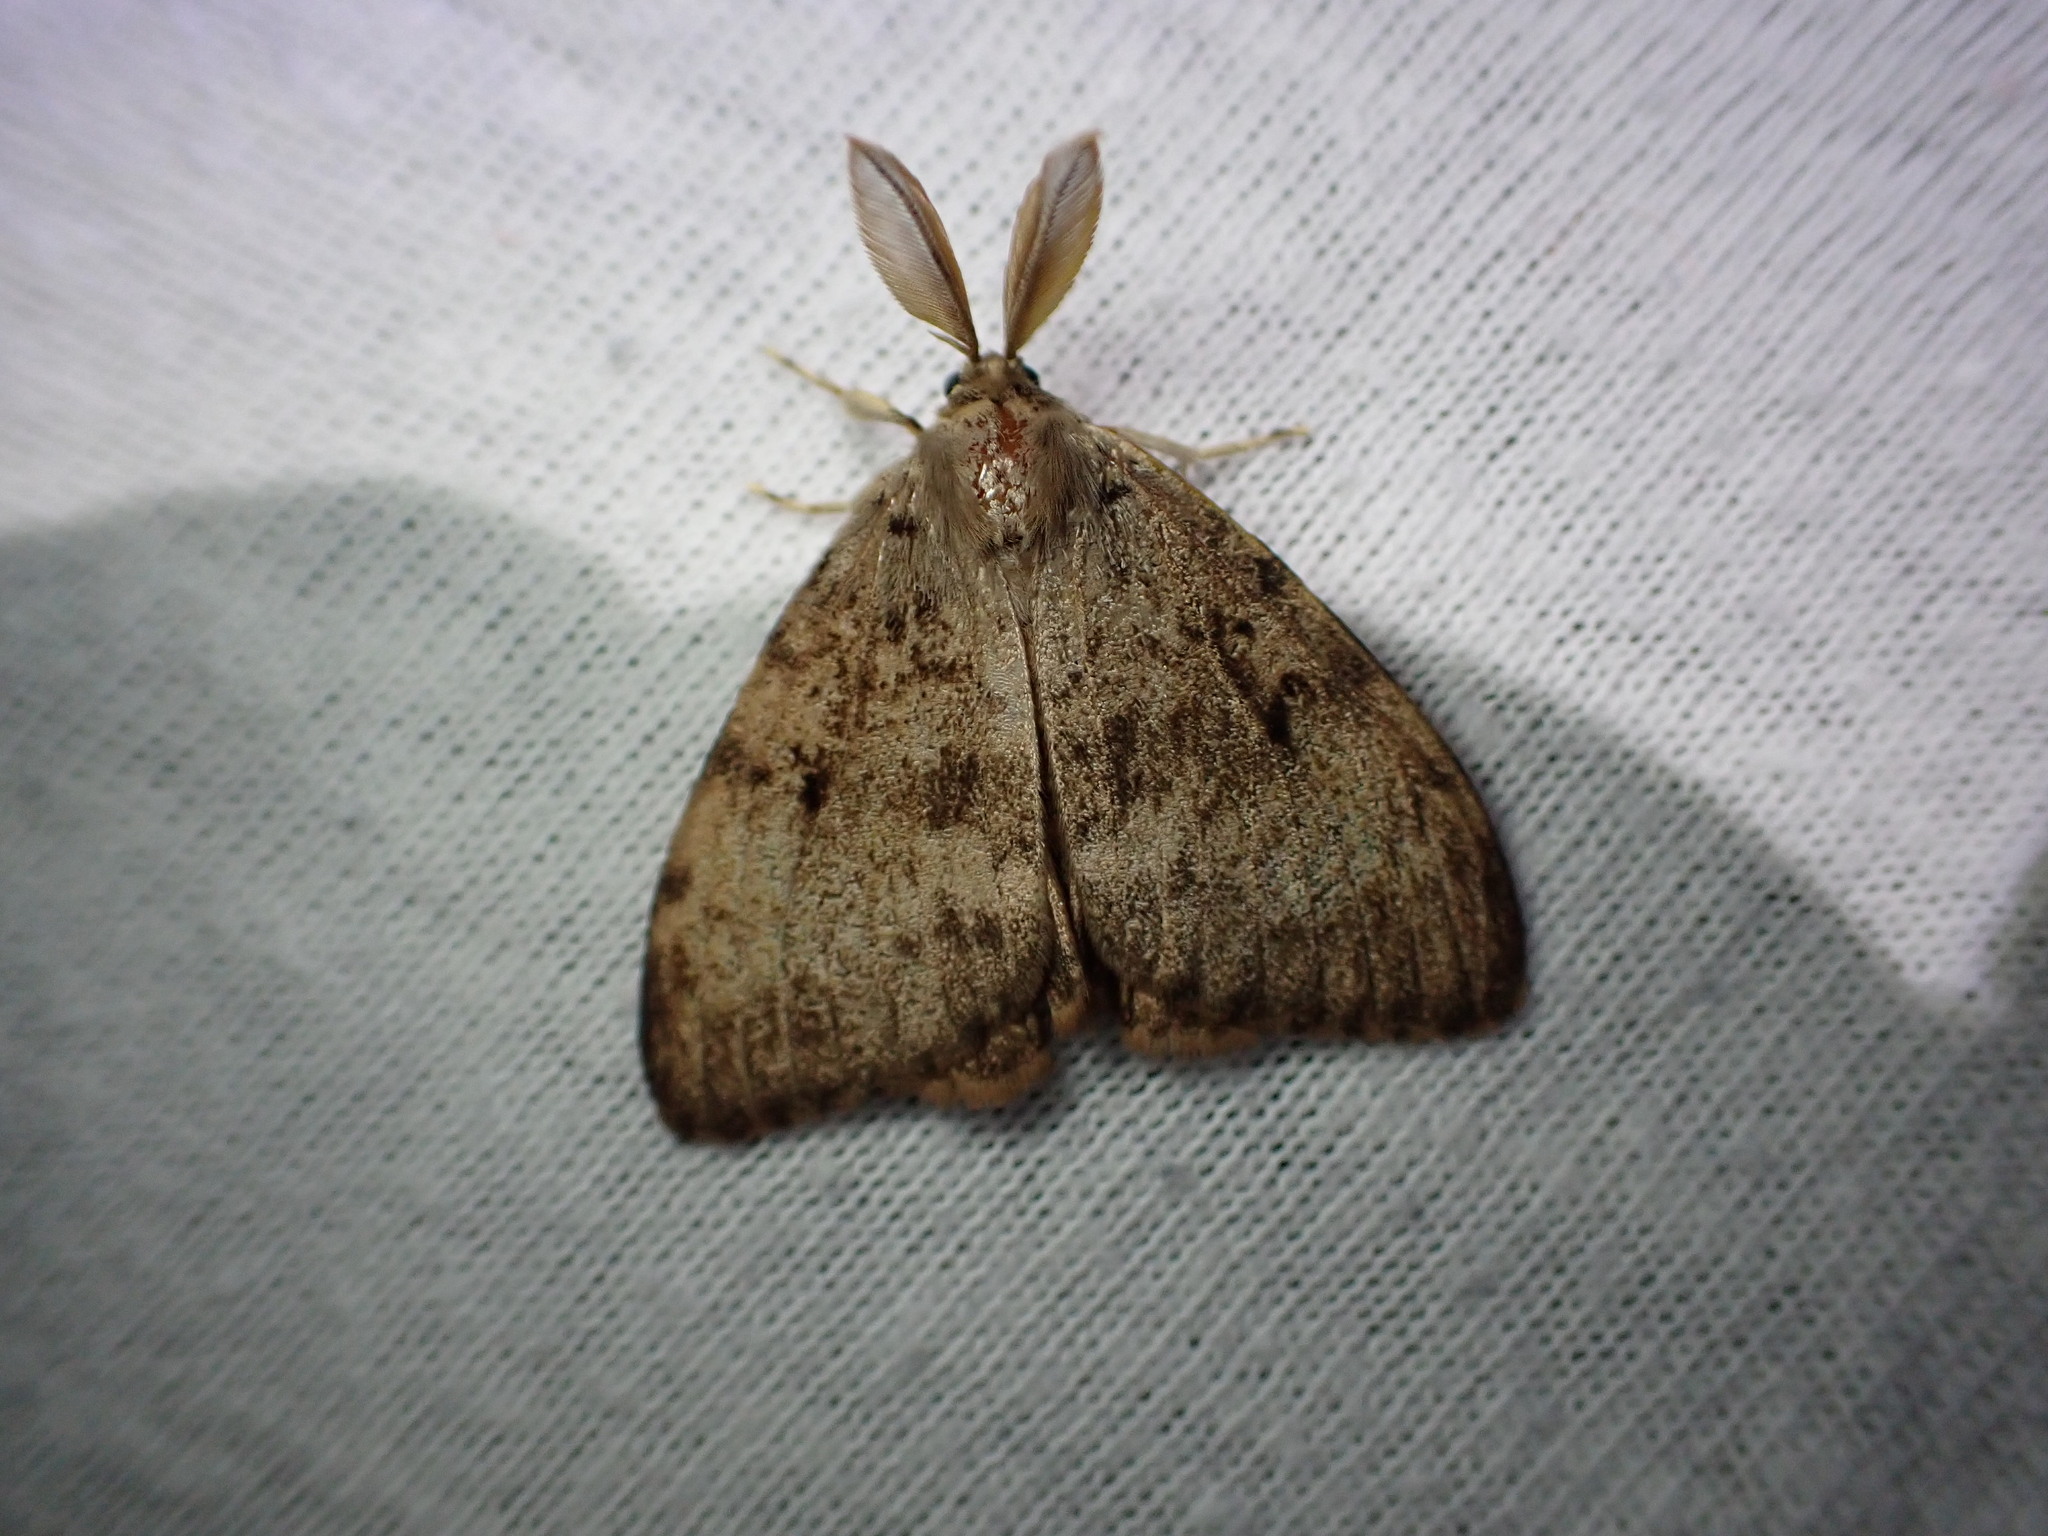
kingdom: Animalia
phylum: Arthropoda
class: Insecta
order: Lepidoptera
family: Erebidae
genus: Lymantria
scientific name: Lymantria dispar
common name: Gypsy moth
